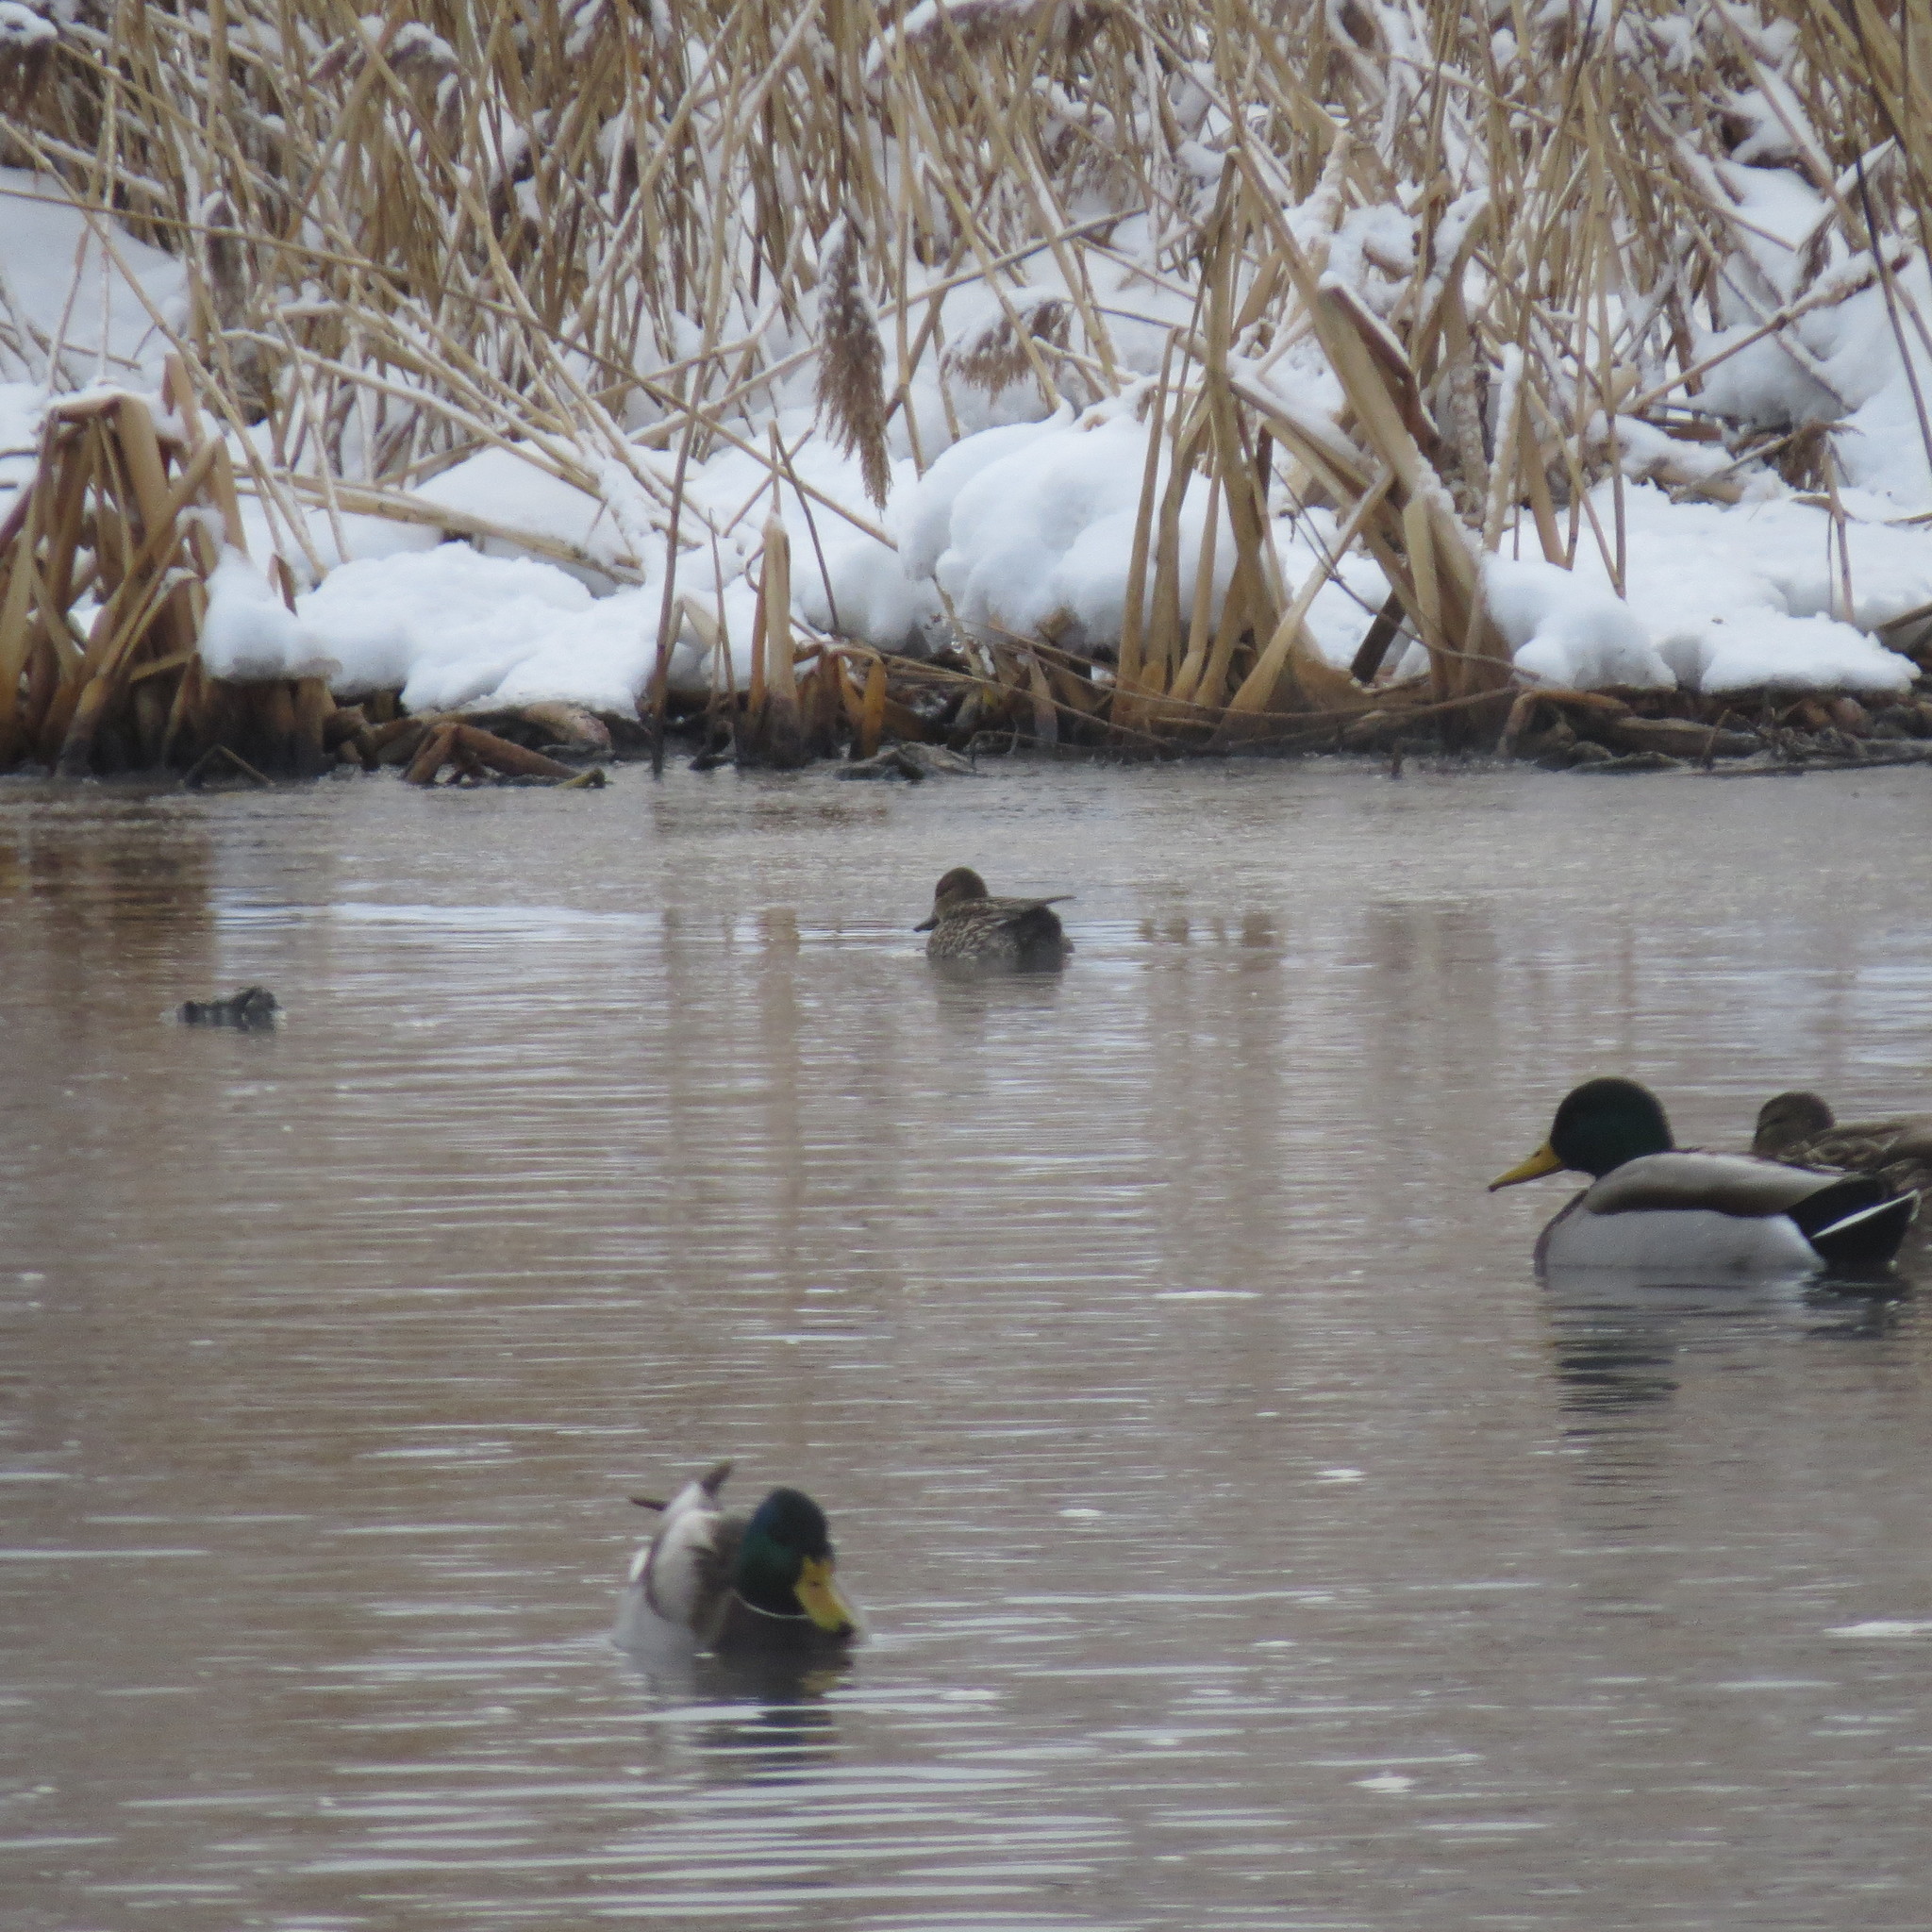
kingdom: Animalia
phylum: Chordata
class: Aves
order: Anseriformes
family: Anatidae
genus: Anas
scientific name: Anas platyrhynchos
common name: Mallard
